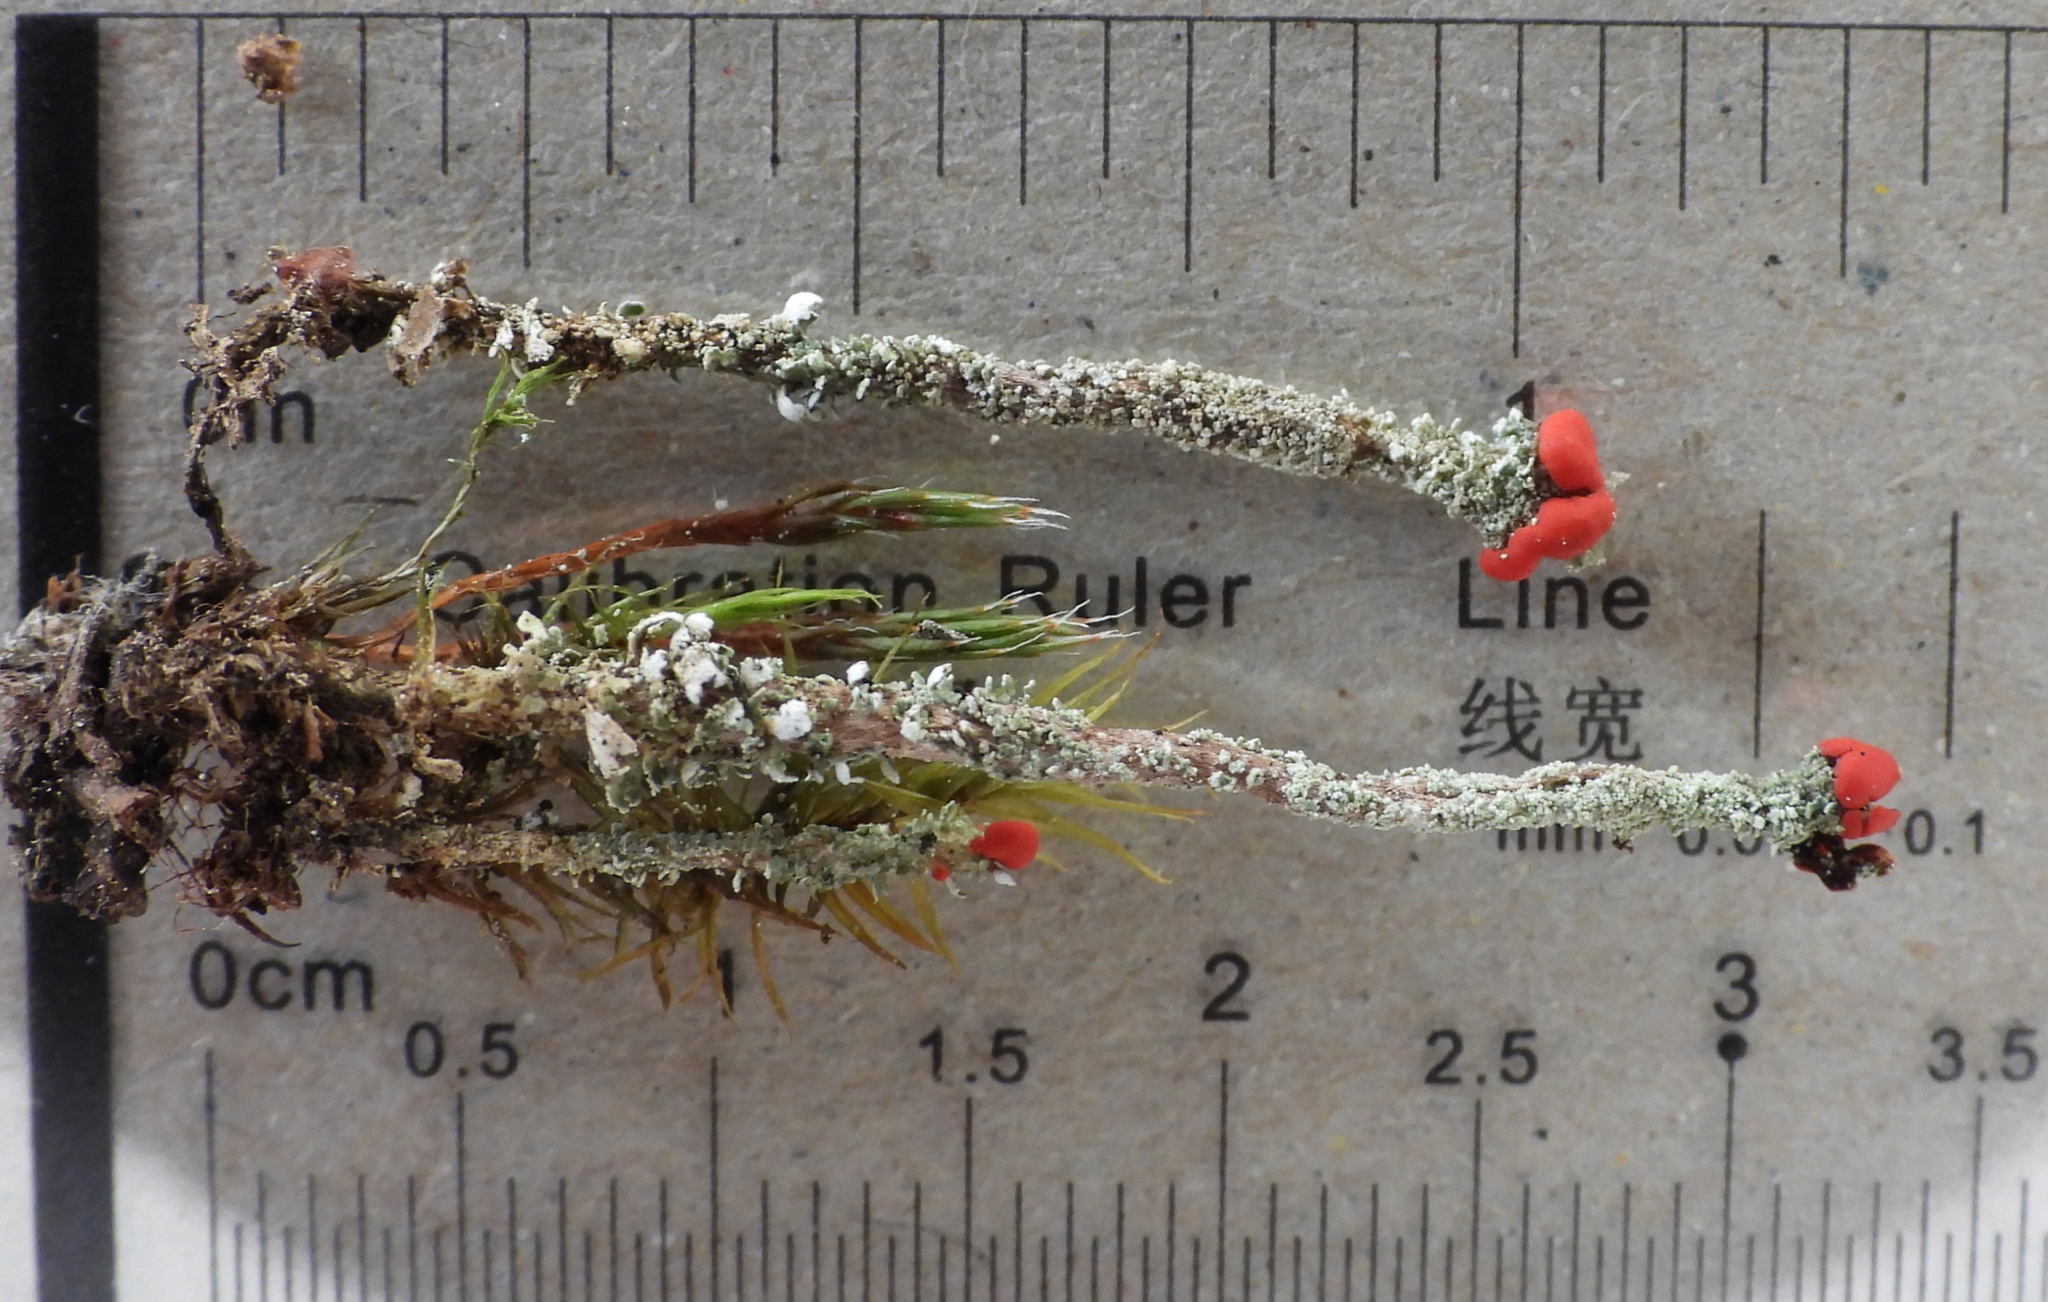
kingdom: Fungi
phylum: Ascomycota
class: Lecanoromycetes
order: Lecanorales
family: Cladoniaceae
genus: Cladonia
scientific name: Cladonia floerkeana
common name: Gritty british soldiers lichen
